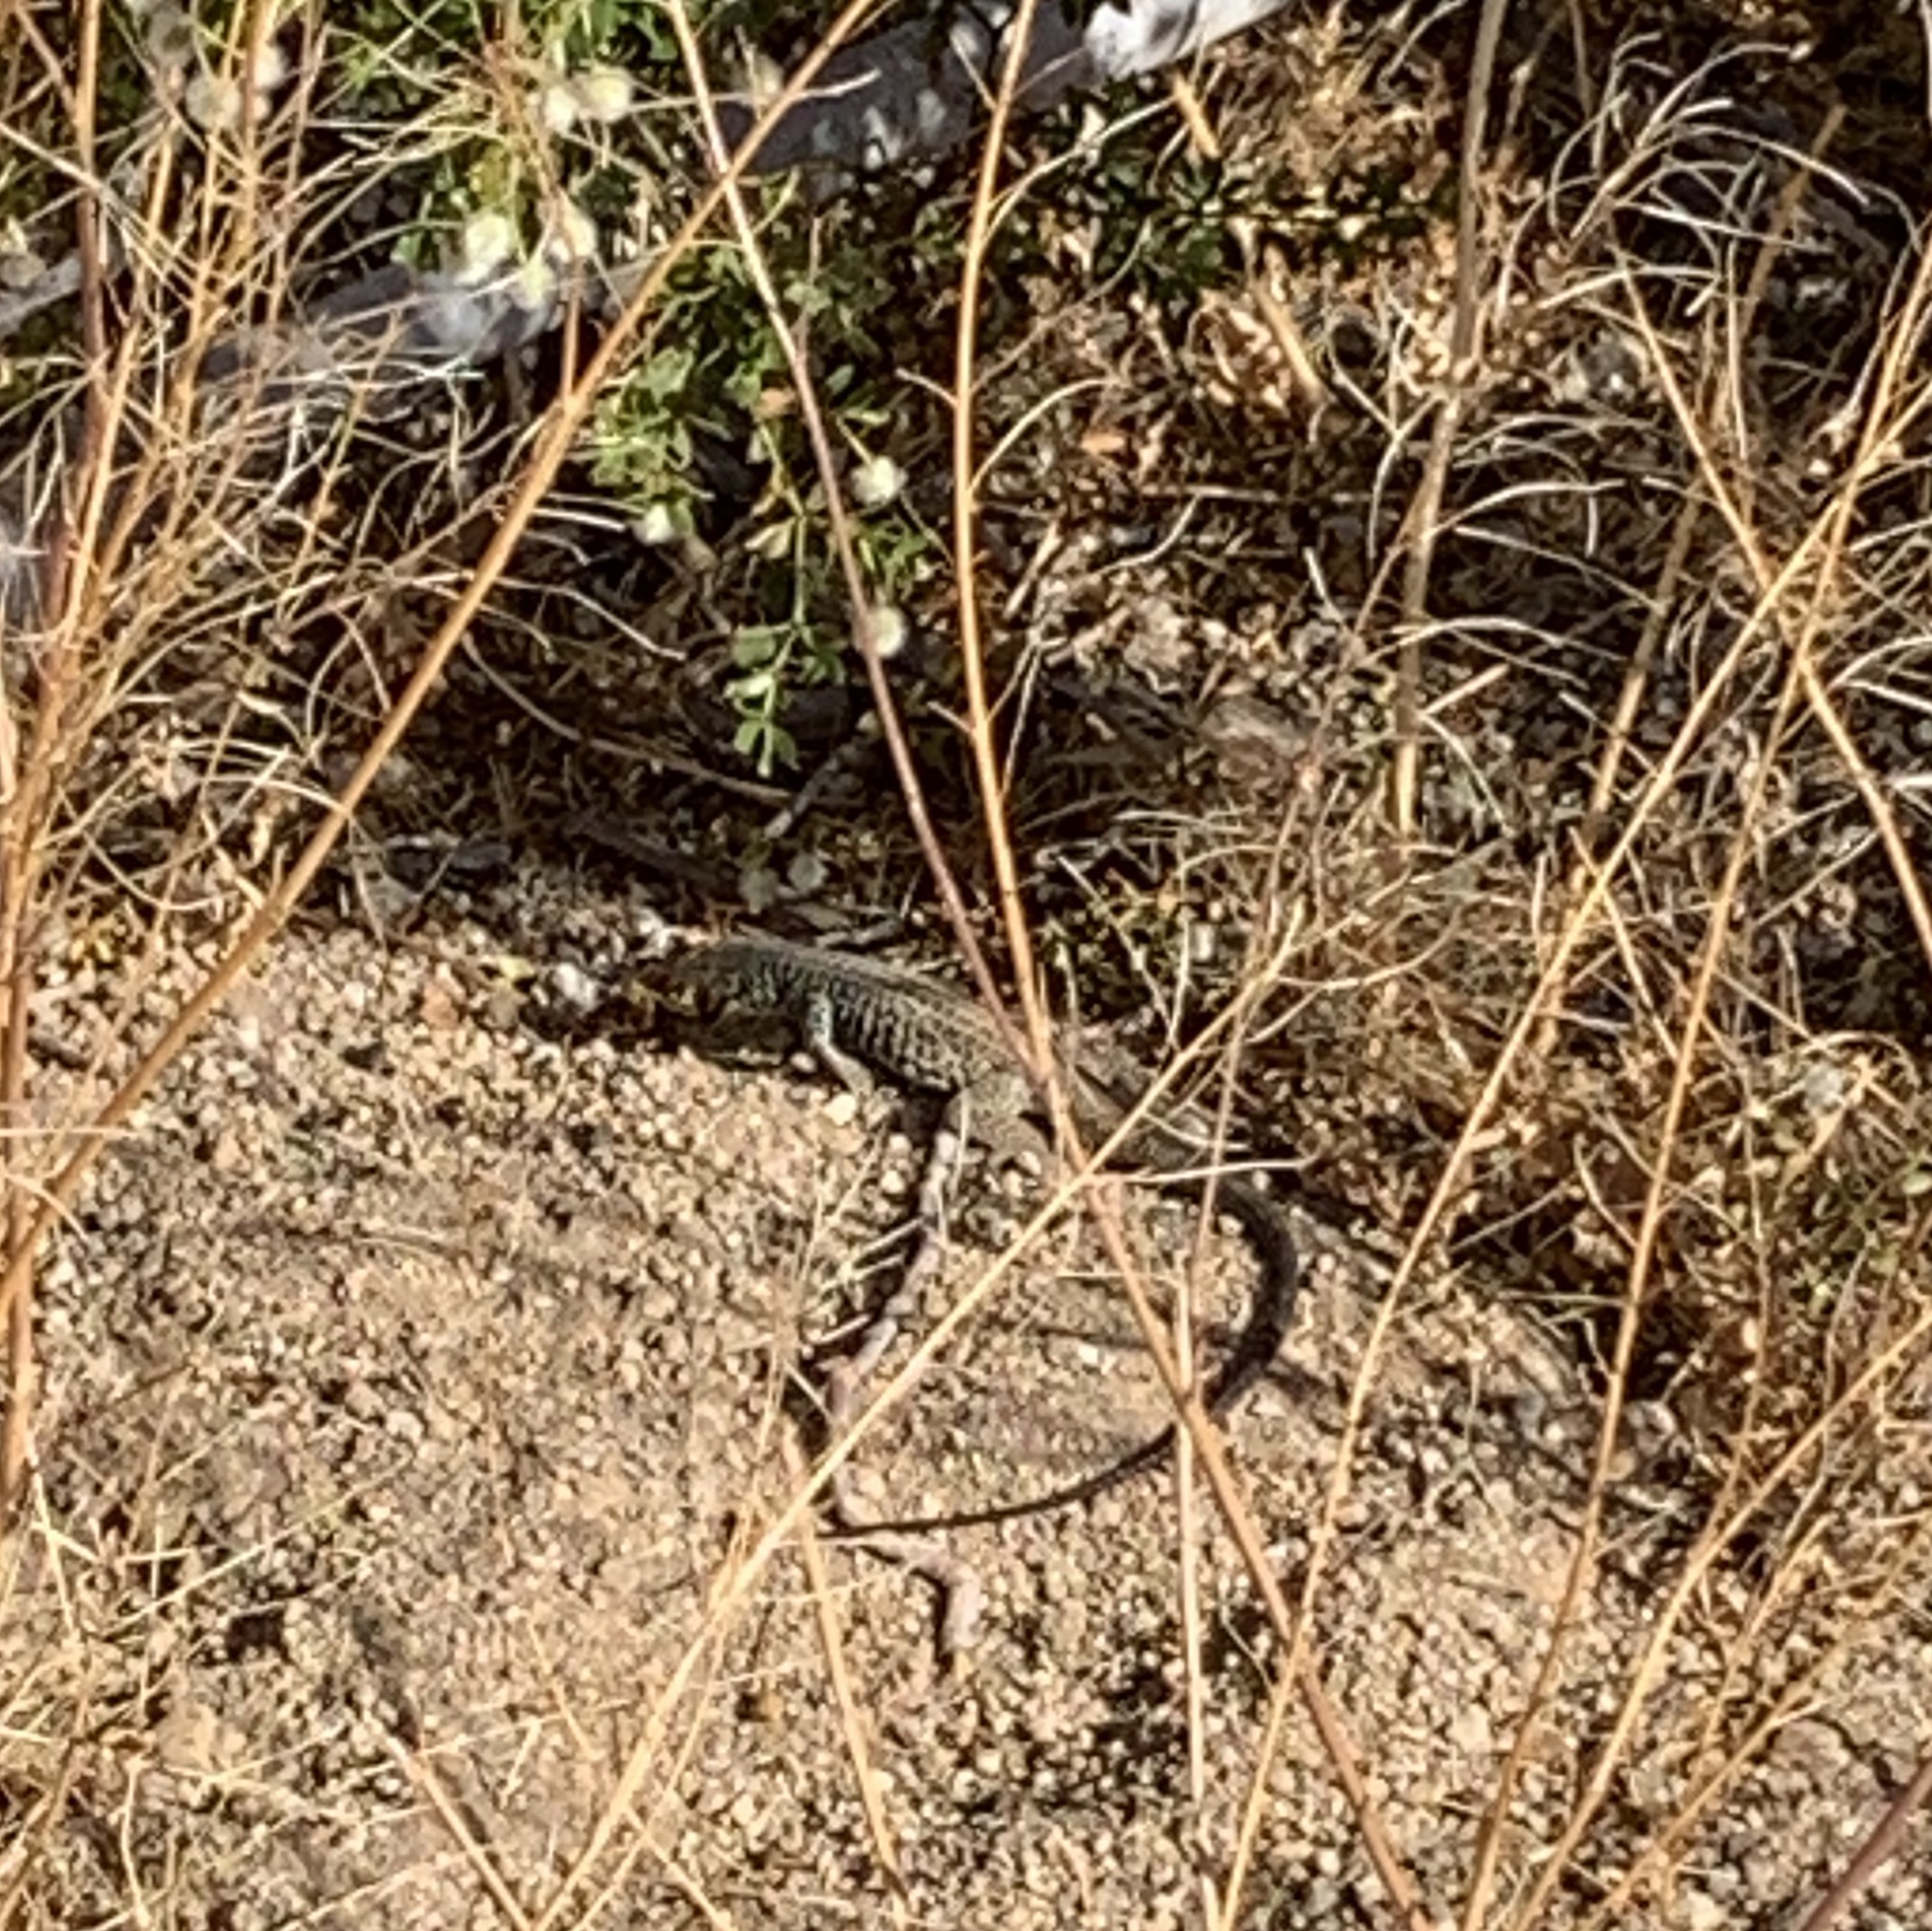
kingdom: Animalia
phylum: Chordata
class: Squamata
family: Teiidae
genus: Aspidoscelis
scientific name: Aspidoscelis tigris
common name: Tiger whiptail
